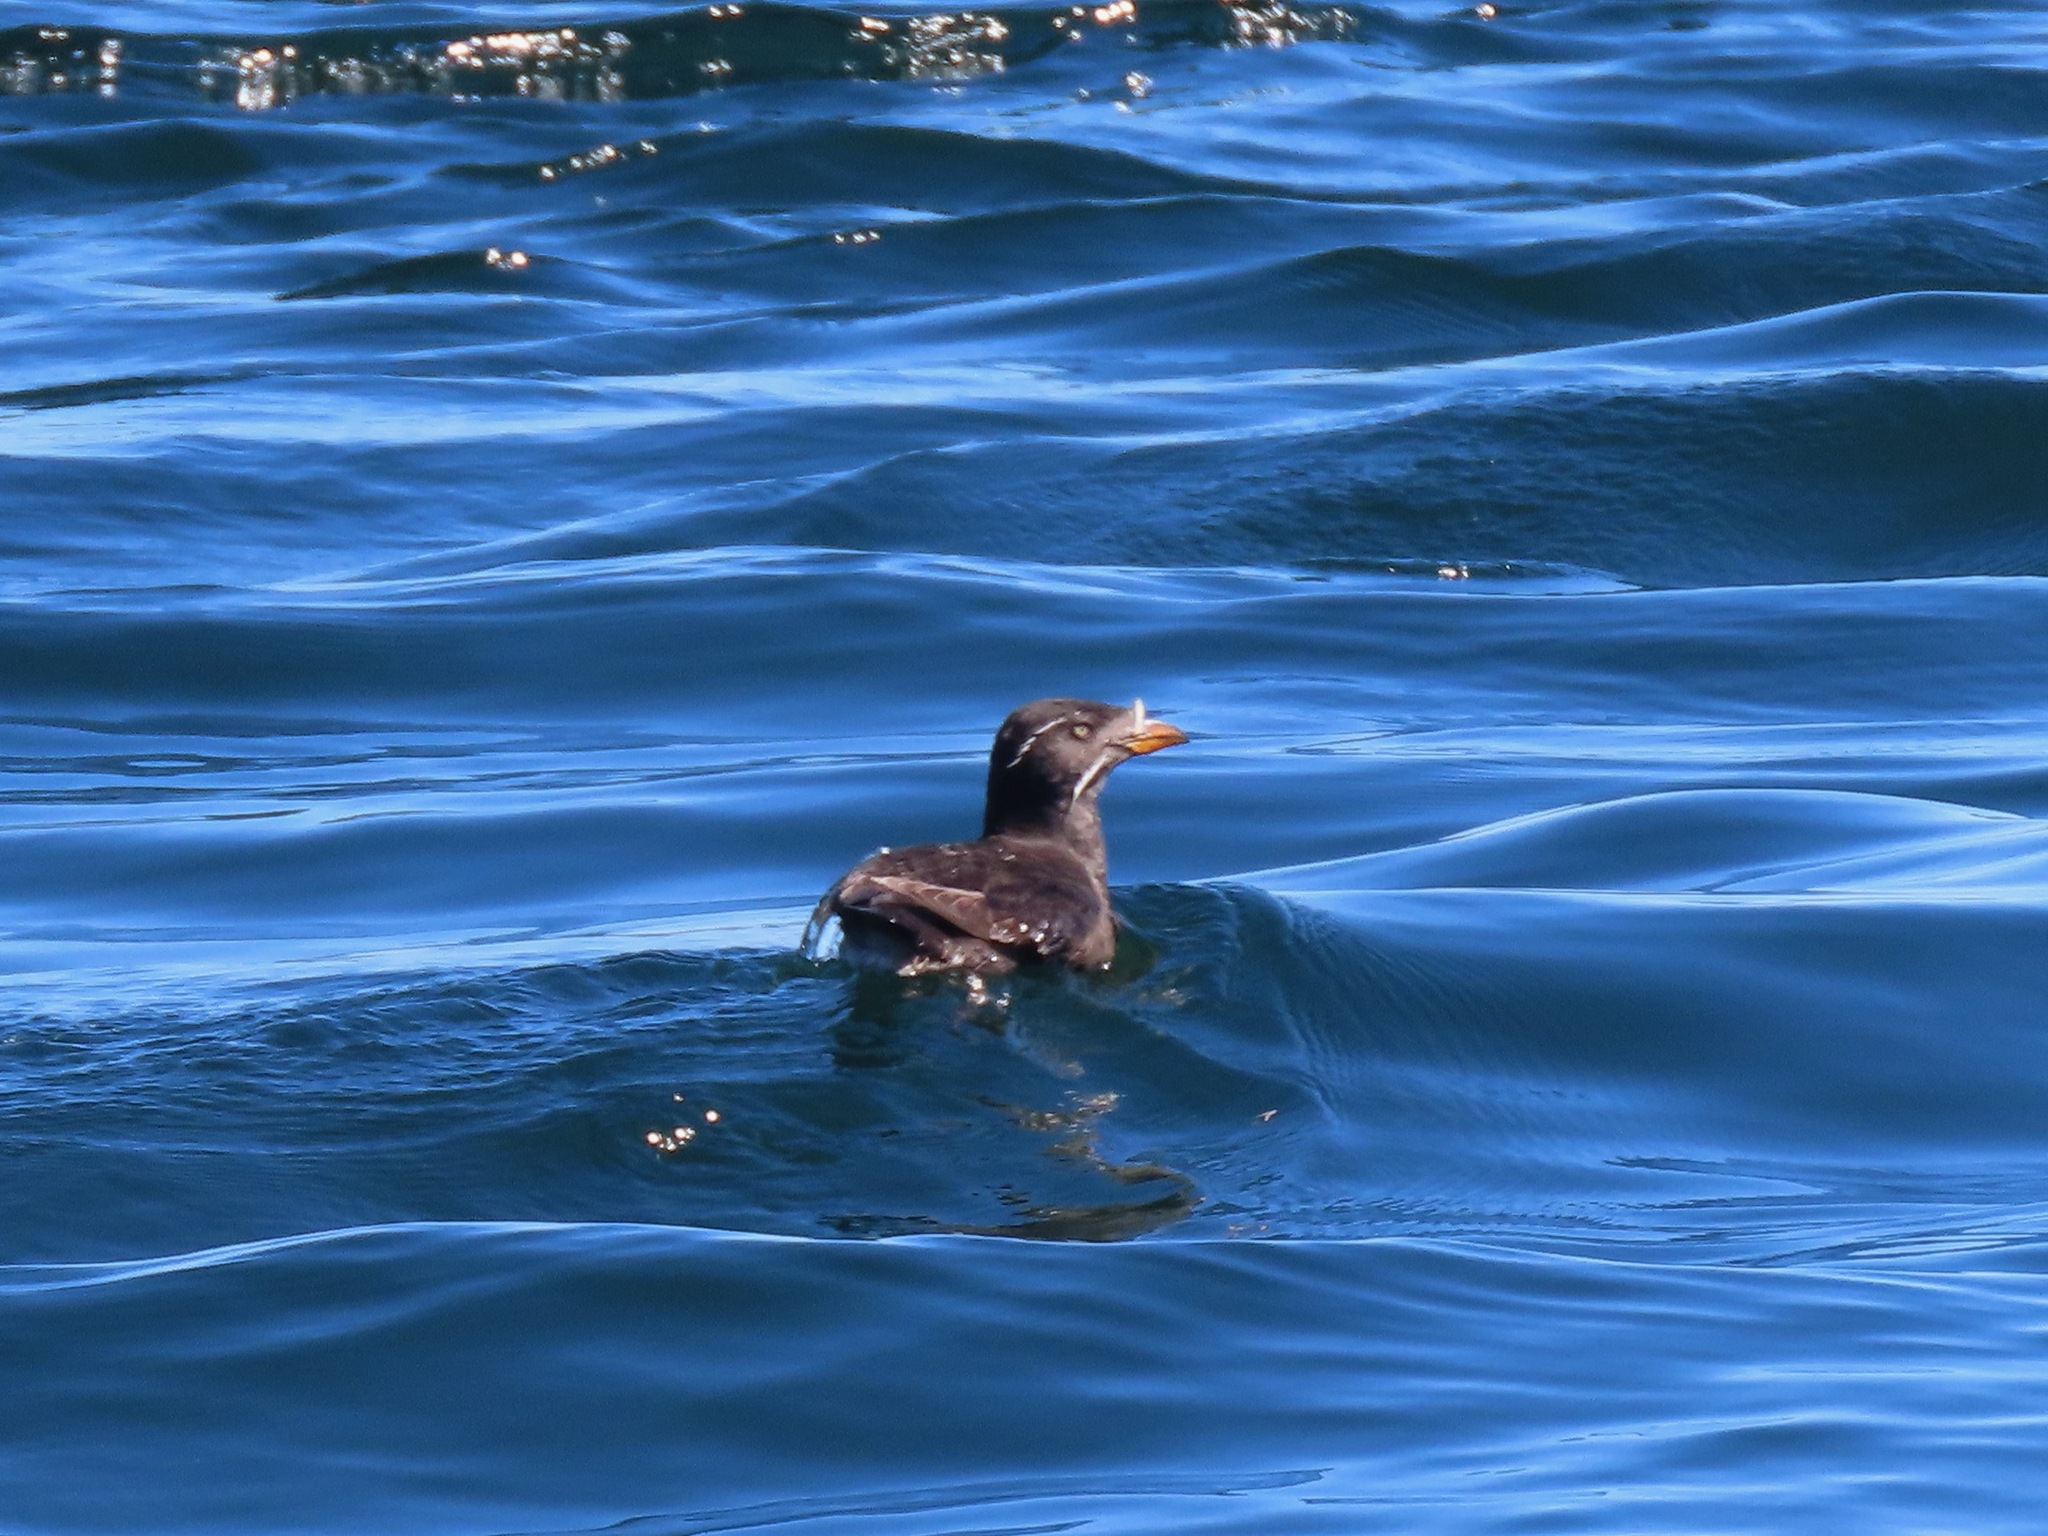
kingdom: Animalia
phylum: Chordata
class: Aves
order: Charadriiformes
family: Alcidae
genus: Cerorhinca
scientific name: Cerorhinca monocerata
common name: Rhinoceros auklet
